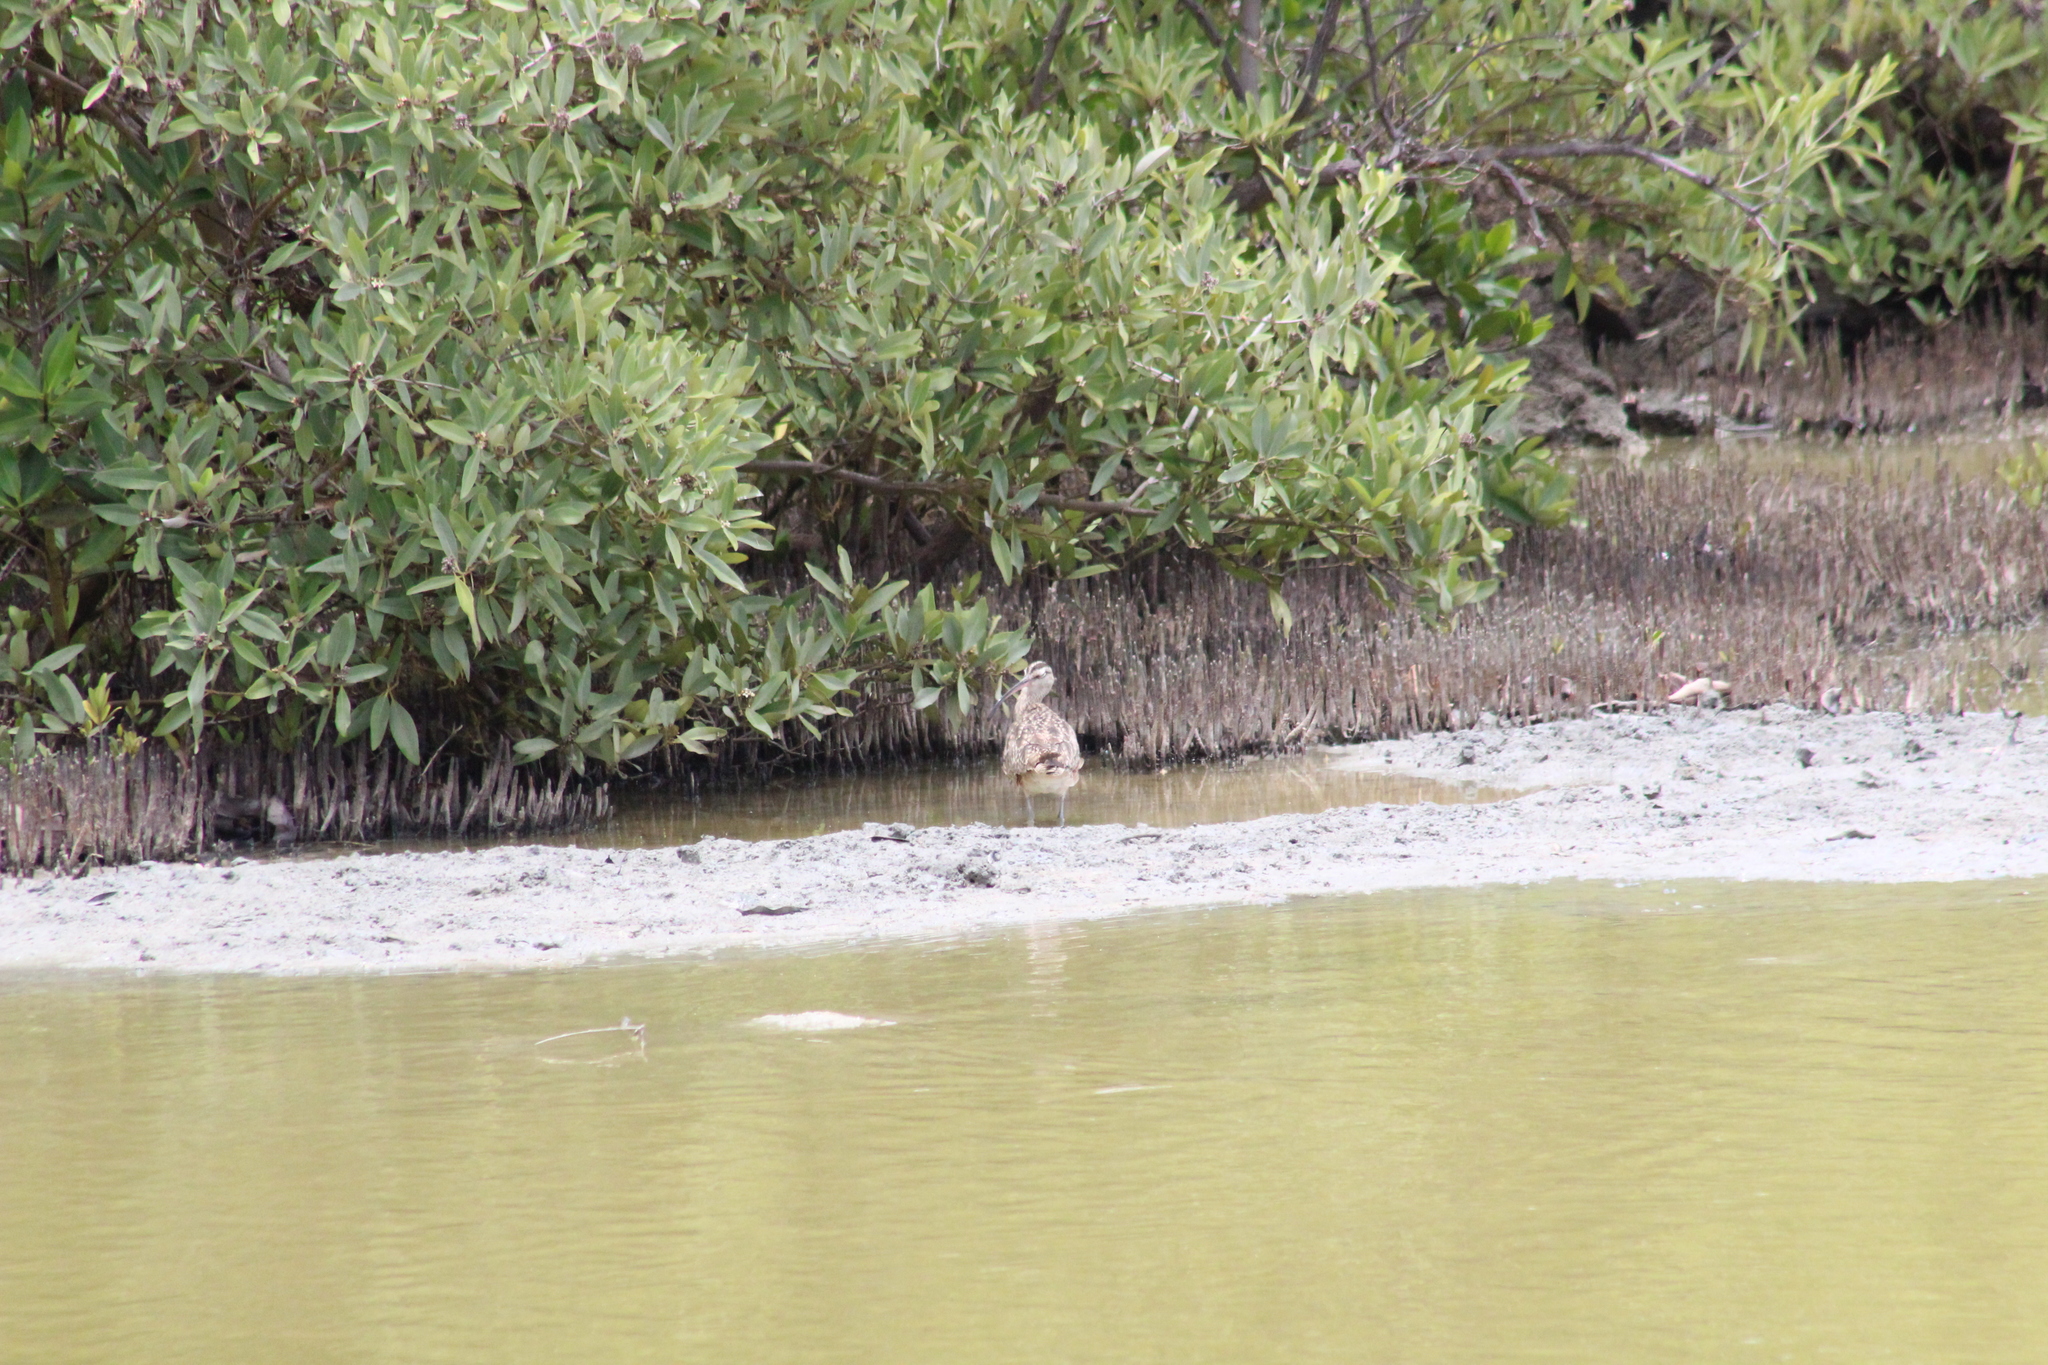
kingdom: Animalia
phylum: Chordata
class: Aves
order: Charadriiformes
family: Scolopacidae
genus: Numenius
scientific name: Numenius hudsonicus
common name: Hudsonian whimbrel
